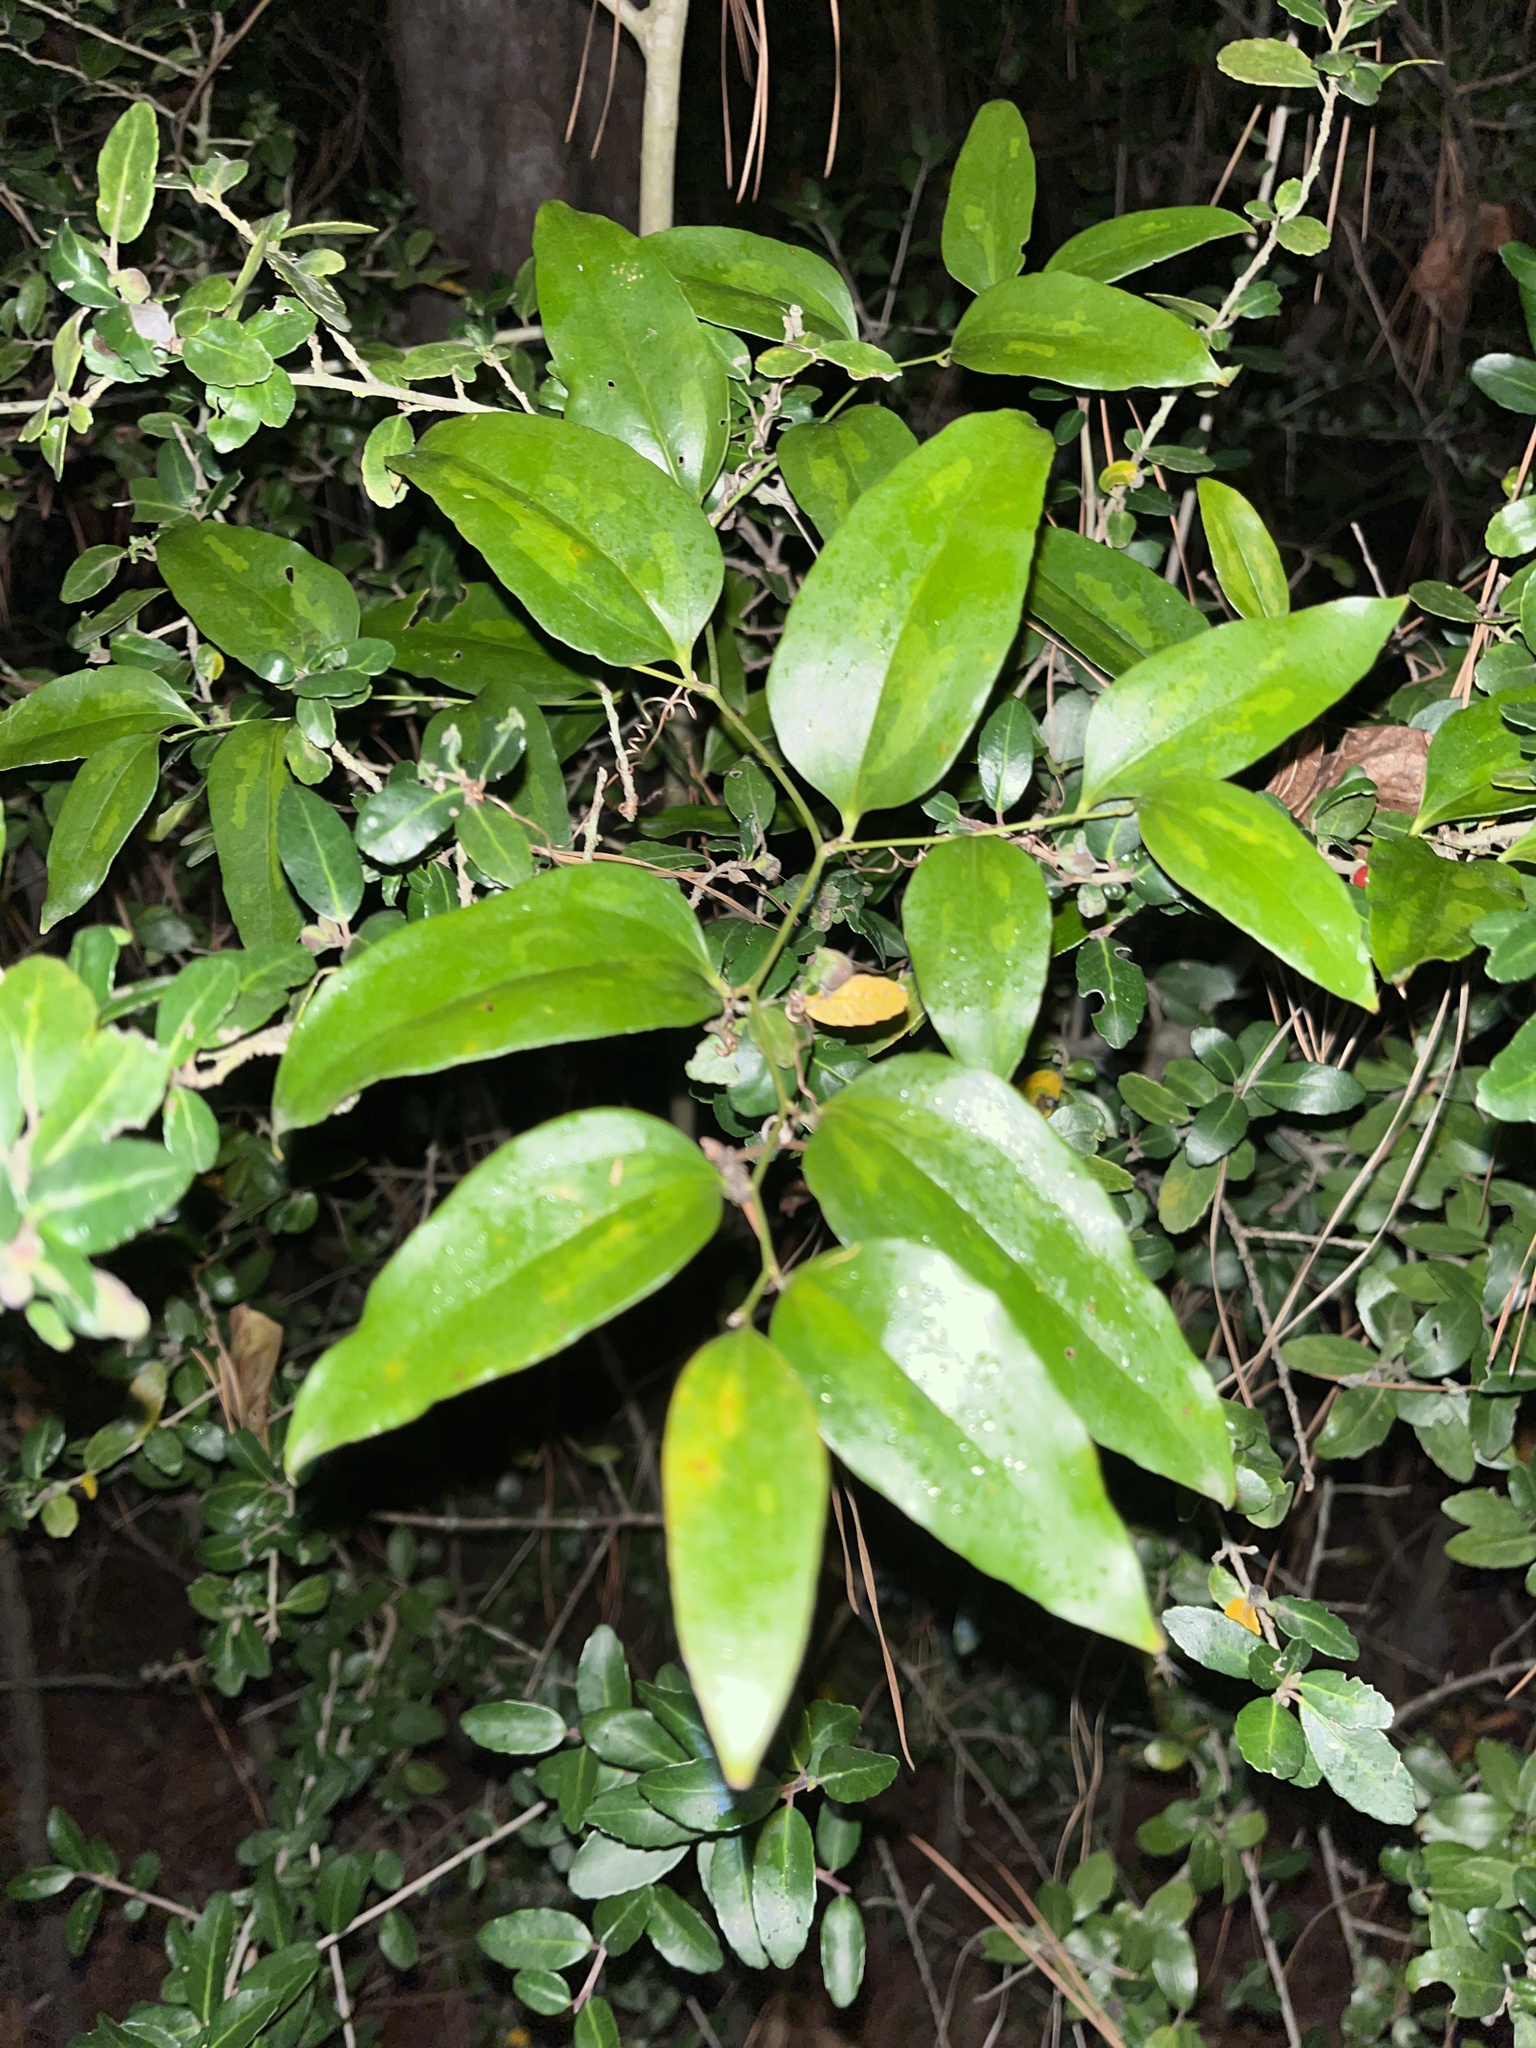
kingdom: Plantae
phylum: Tracheophyta
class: Liliopsida
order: Liliales
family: Smilacaceae
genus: Smilax
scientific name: Smilax maritima
